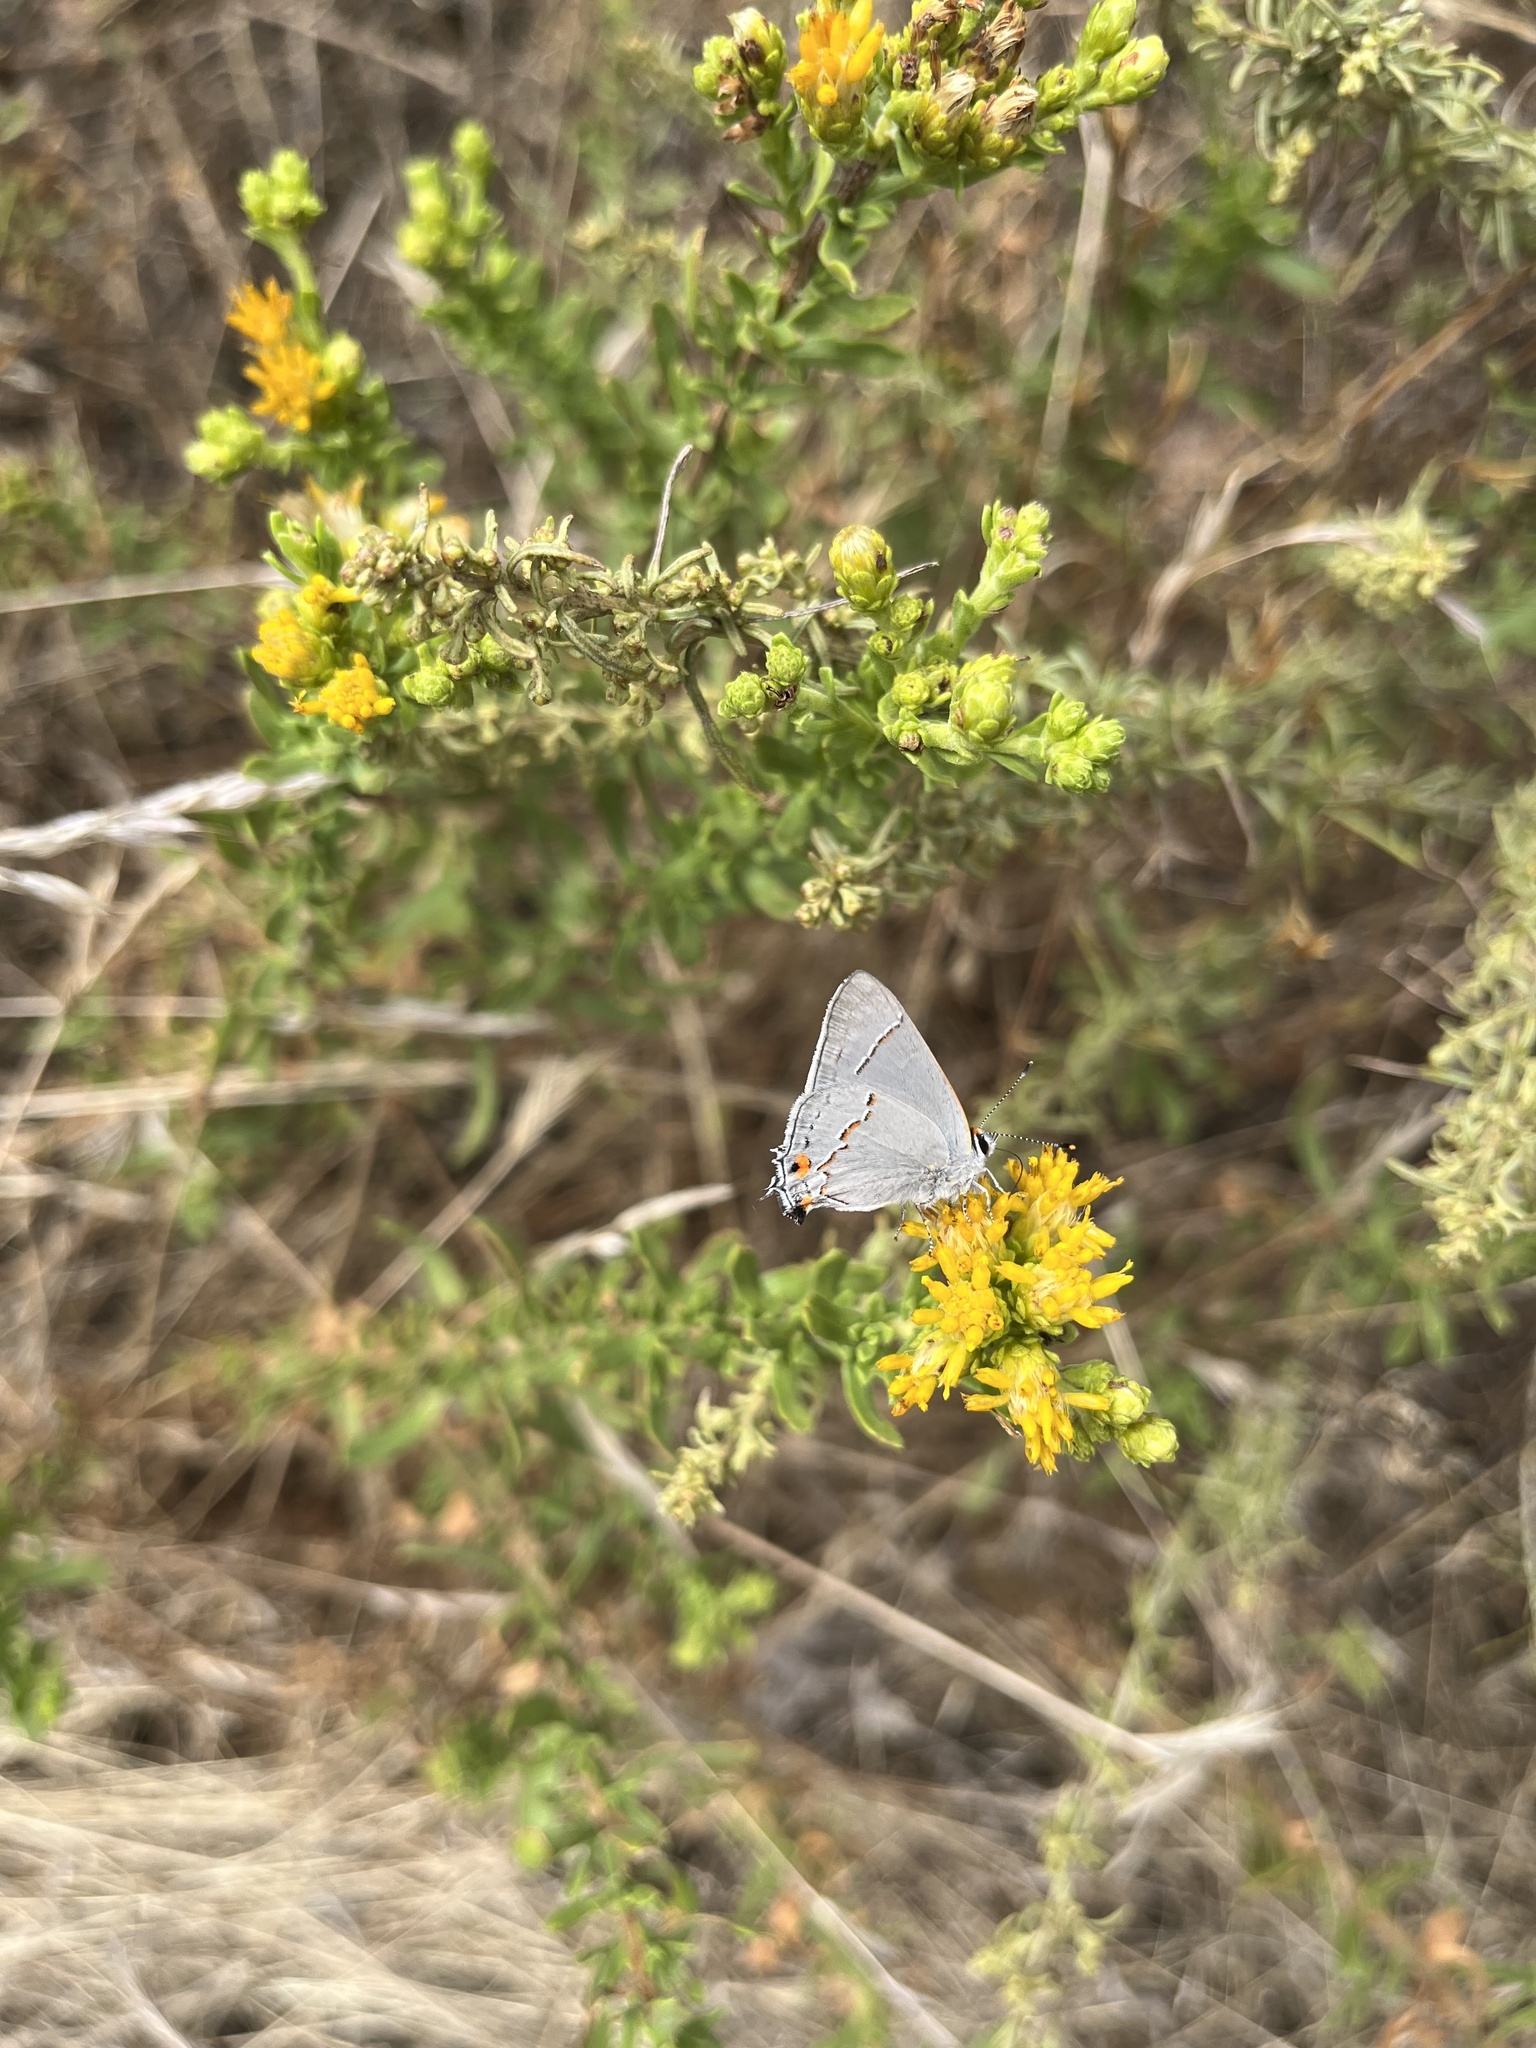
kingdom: Animalia
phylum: Arthropoda
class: Insecta
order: Lepidoptera
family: Lycaenidae
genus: Strymon
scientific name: Strymon melinus
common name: Gray hairstreak
